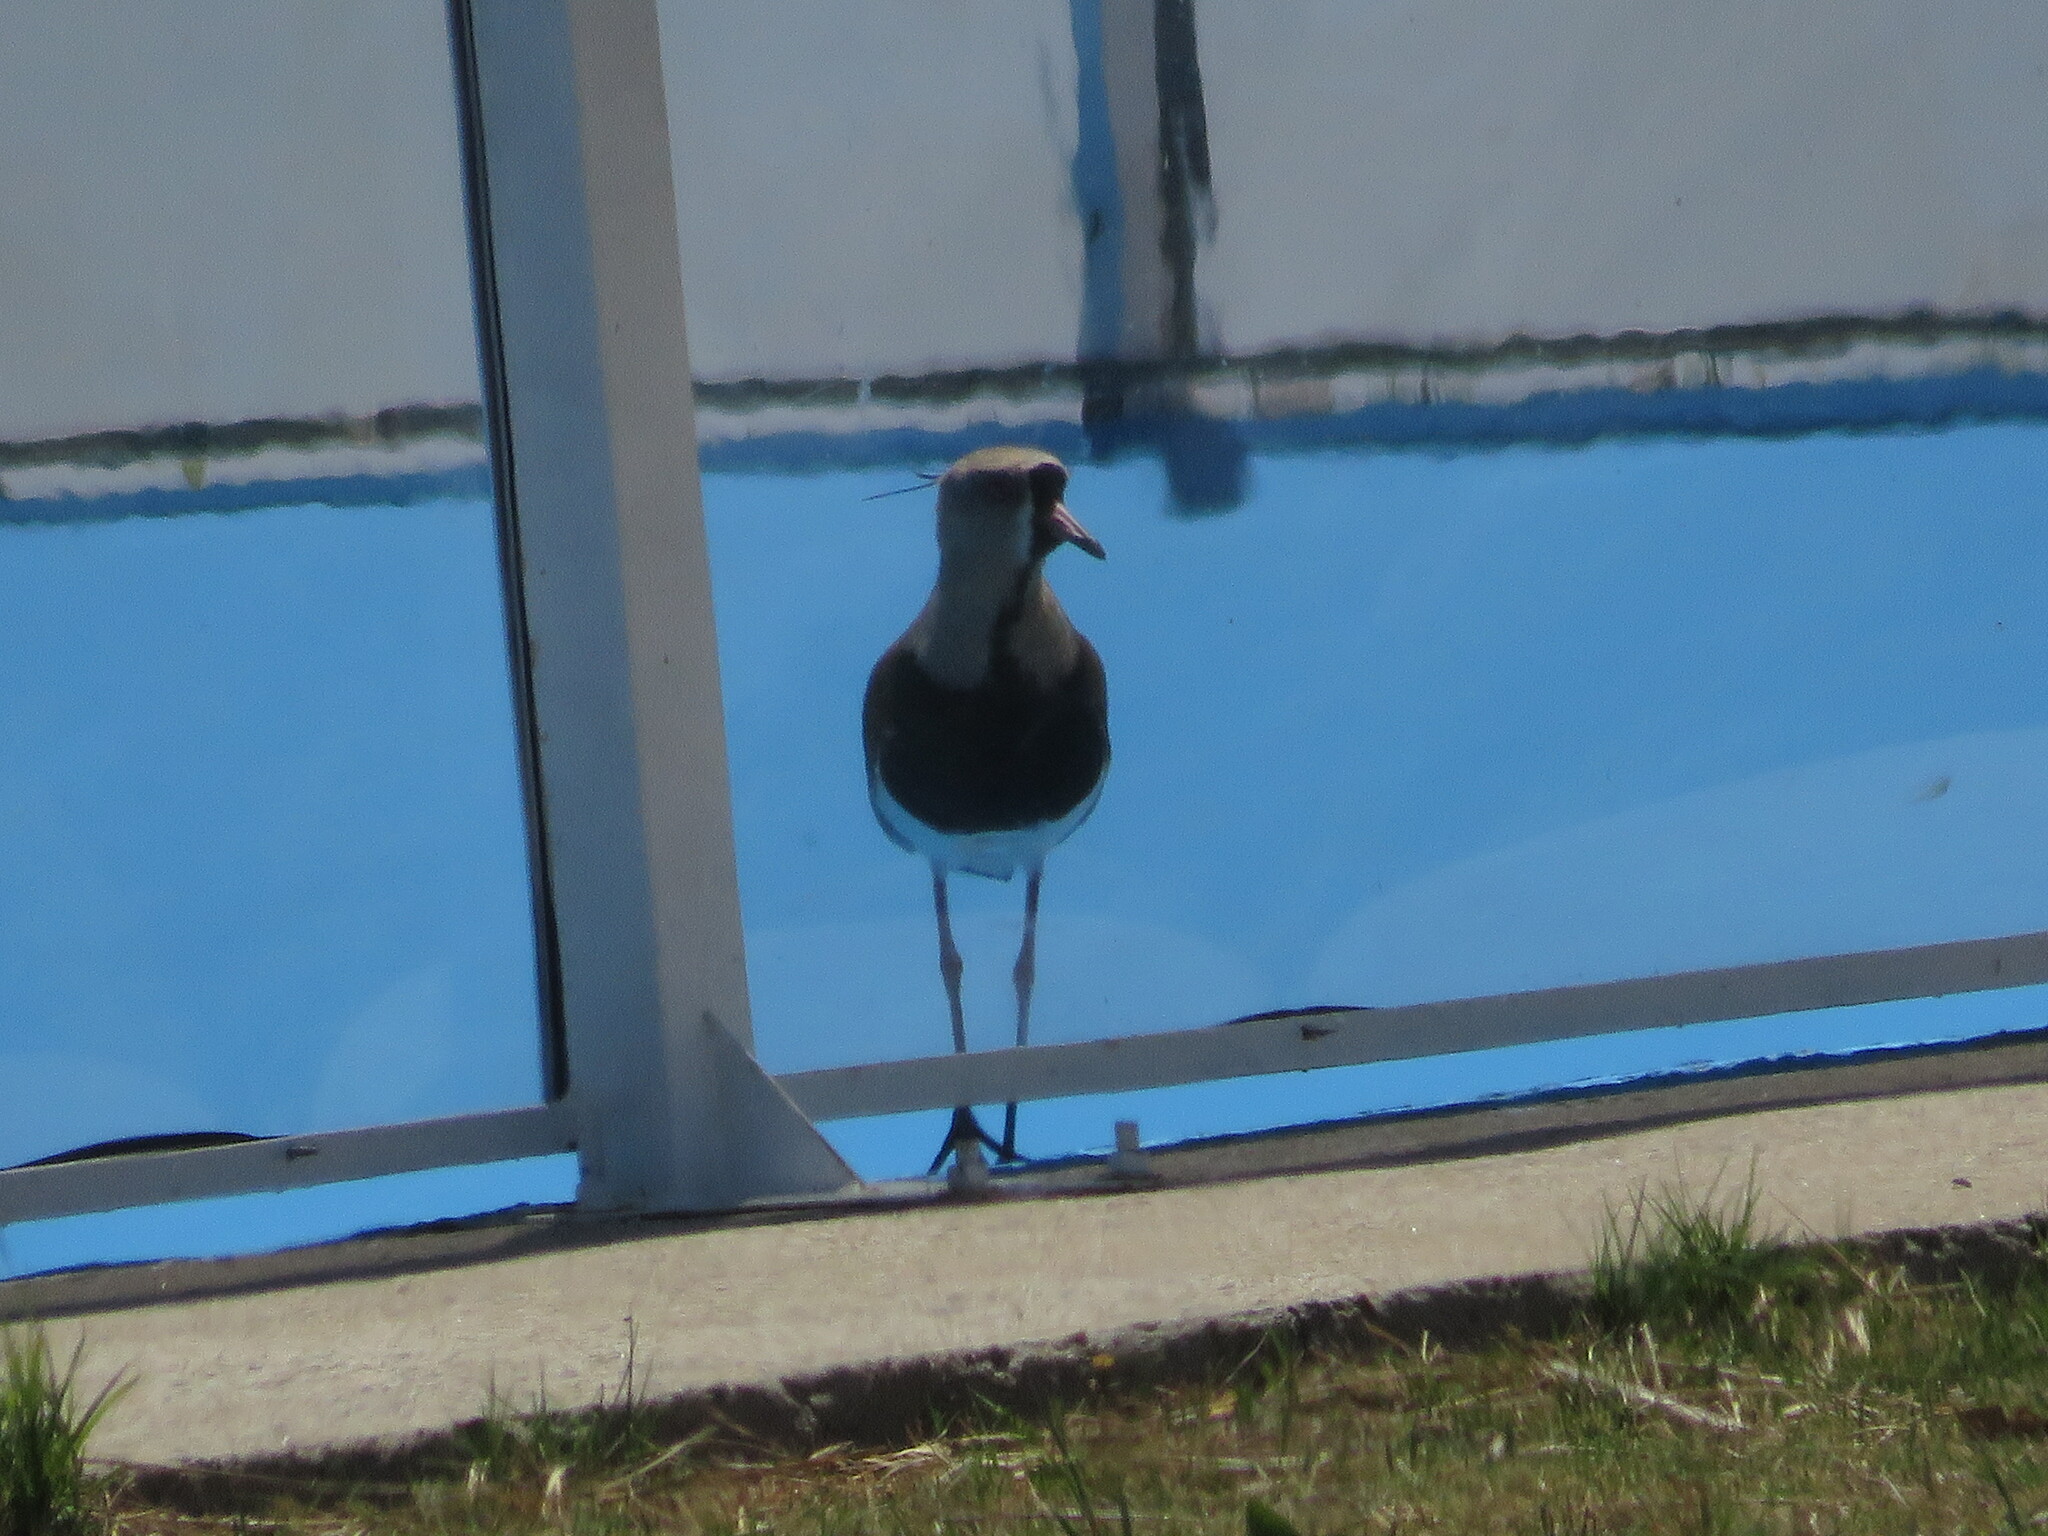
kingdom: Animalia
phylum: Chordata
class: Aves
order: Charadriiformes
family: Charadriidae
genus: Vanellus
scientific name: Vanellus chilensis
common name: Southern lapwing
